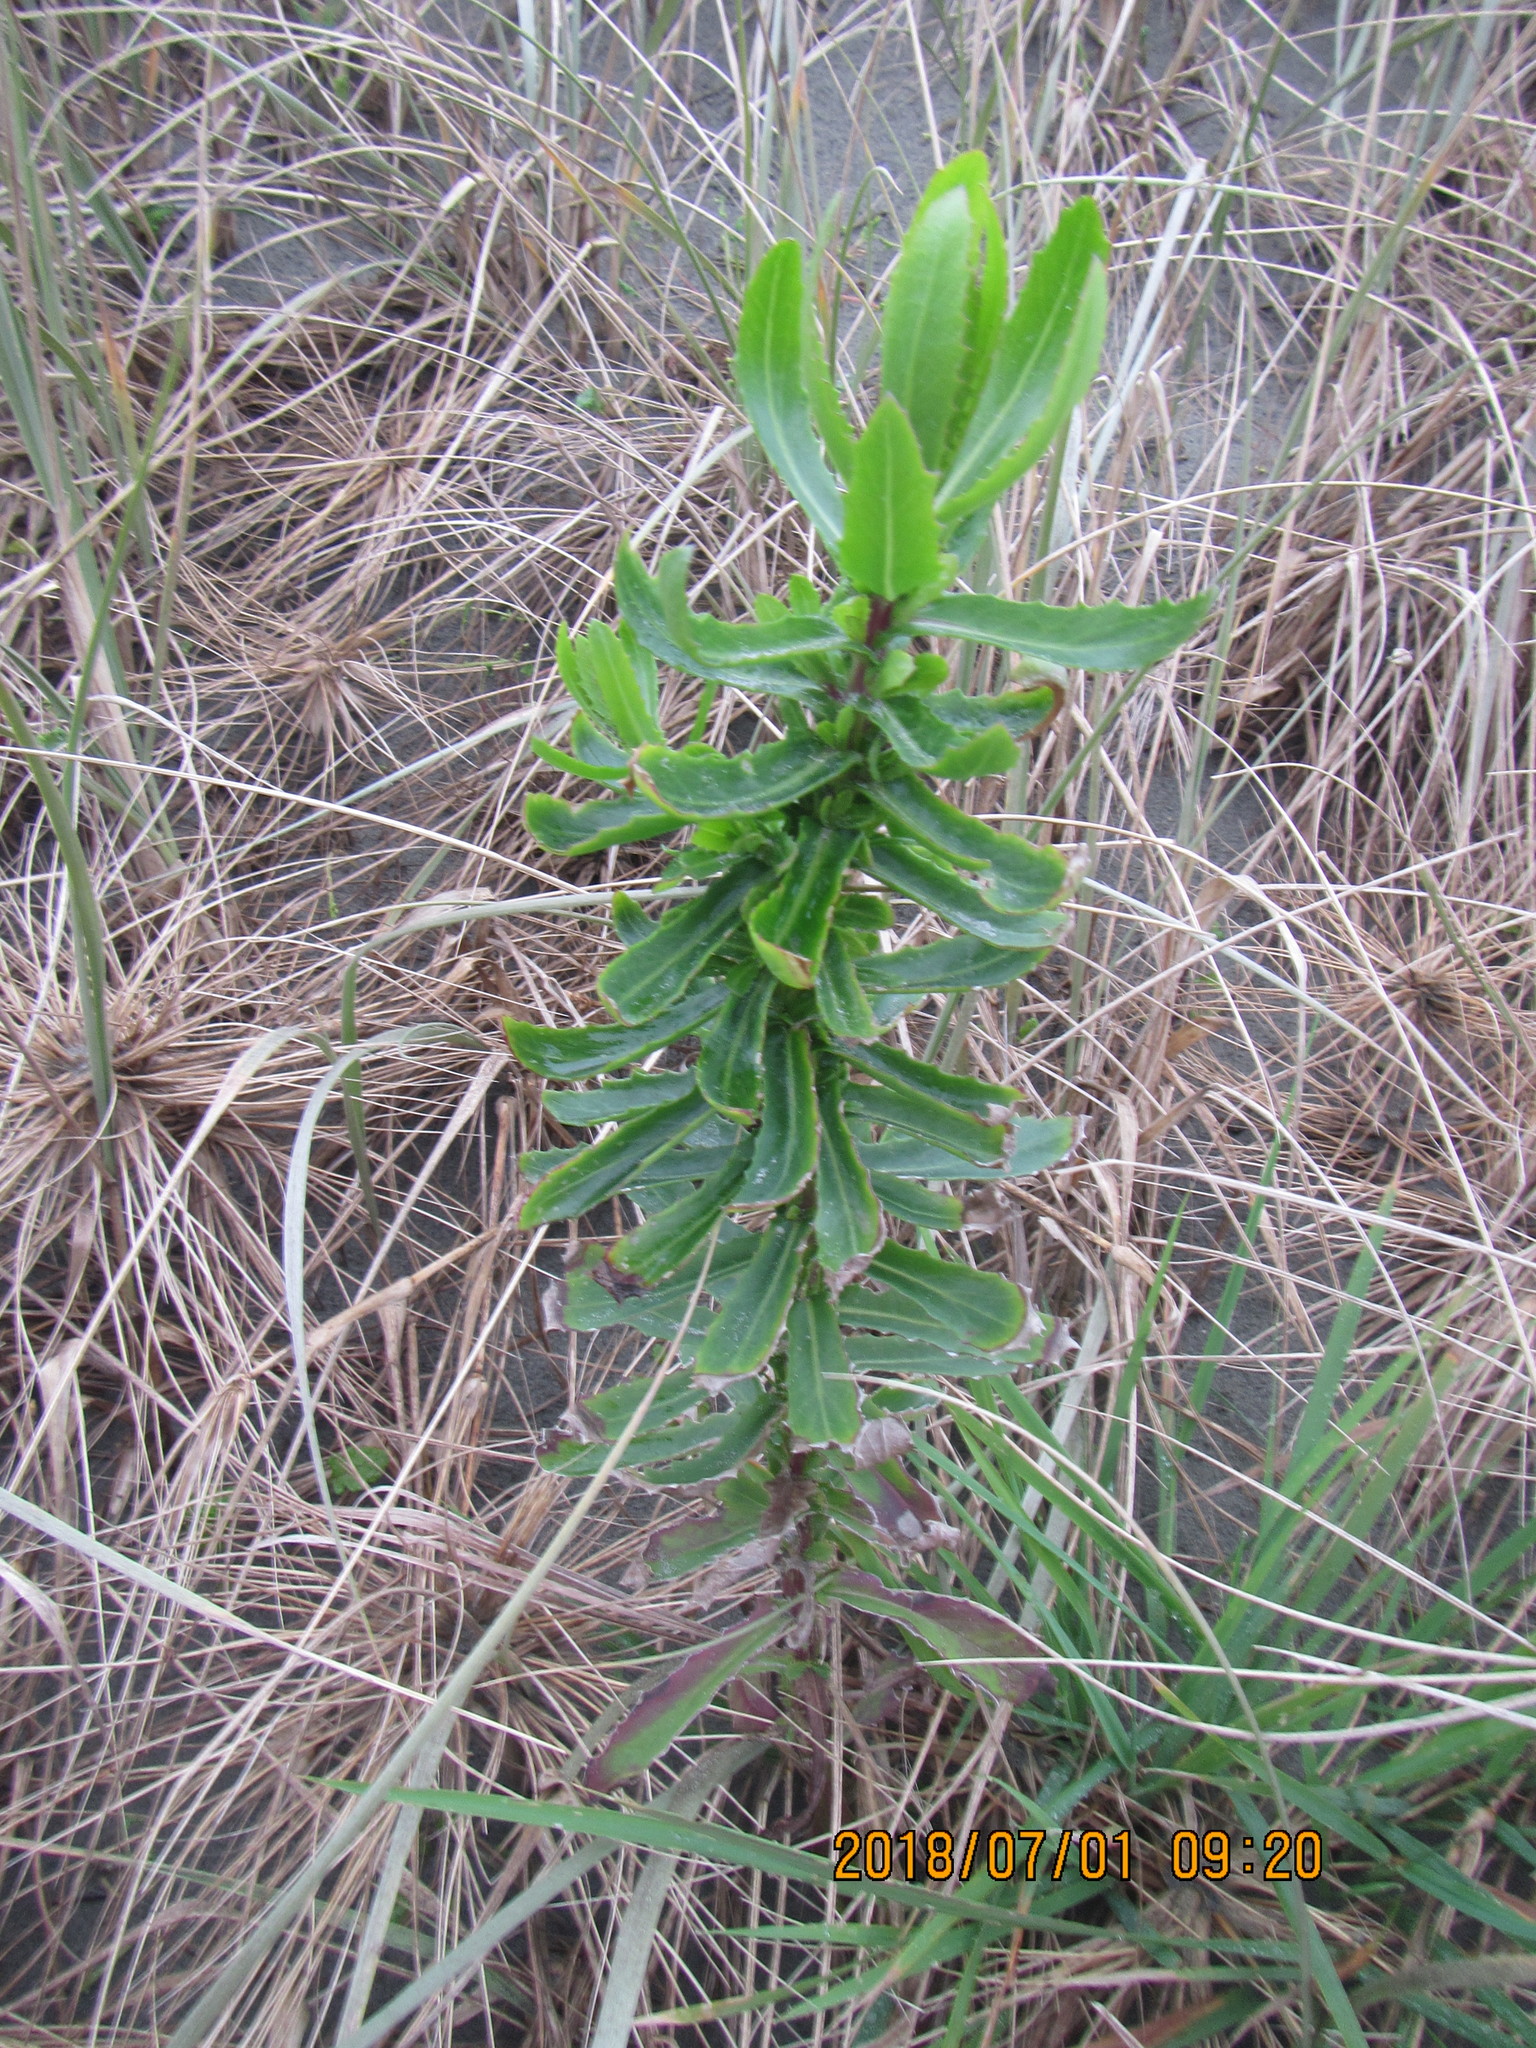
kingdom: Plantae
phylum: Tracheophyta
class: Magnoliopsida
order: Asterales
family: Asteraceae
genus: Senecio
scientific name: Senecio glastifolius
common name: Woad-leaved ragwort
